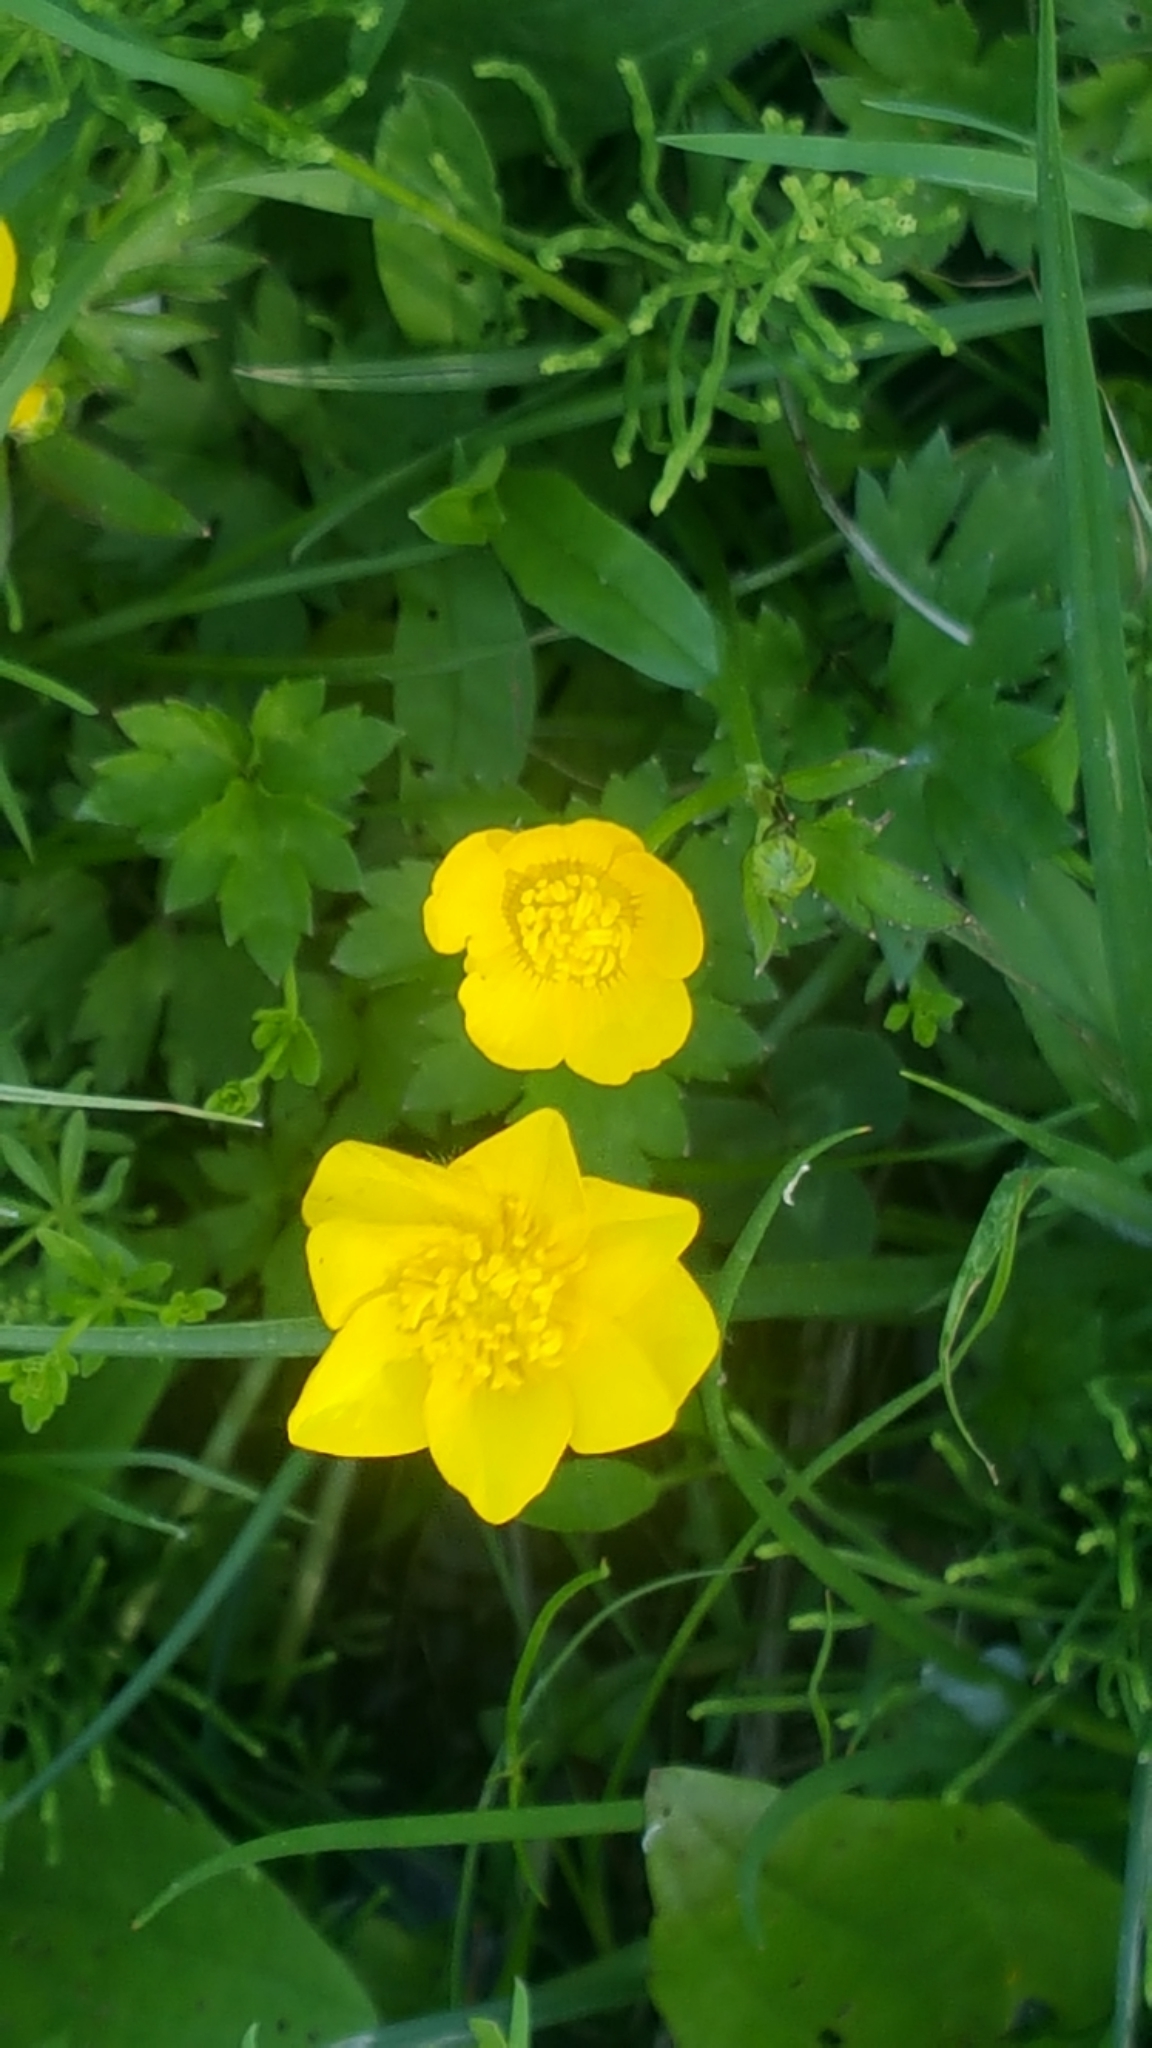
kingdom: Plantae
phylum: Tracheophyta
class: Magnoliopsida
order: Ranunculales
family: Ranunculaceae
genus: Ranunculus
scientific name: Ranunculus repens
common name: Creeping buttercup
